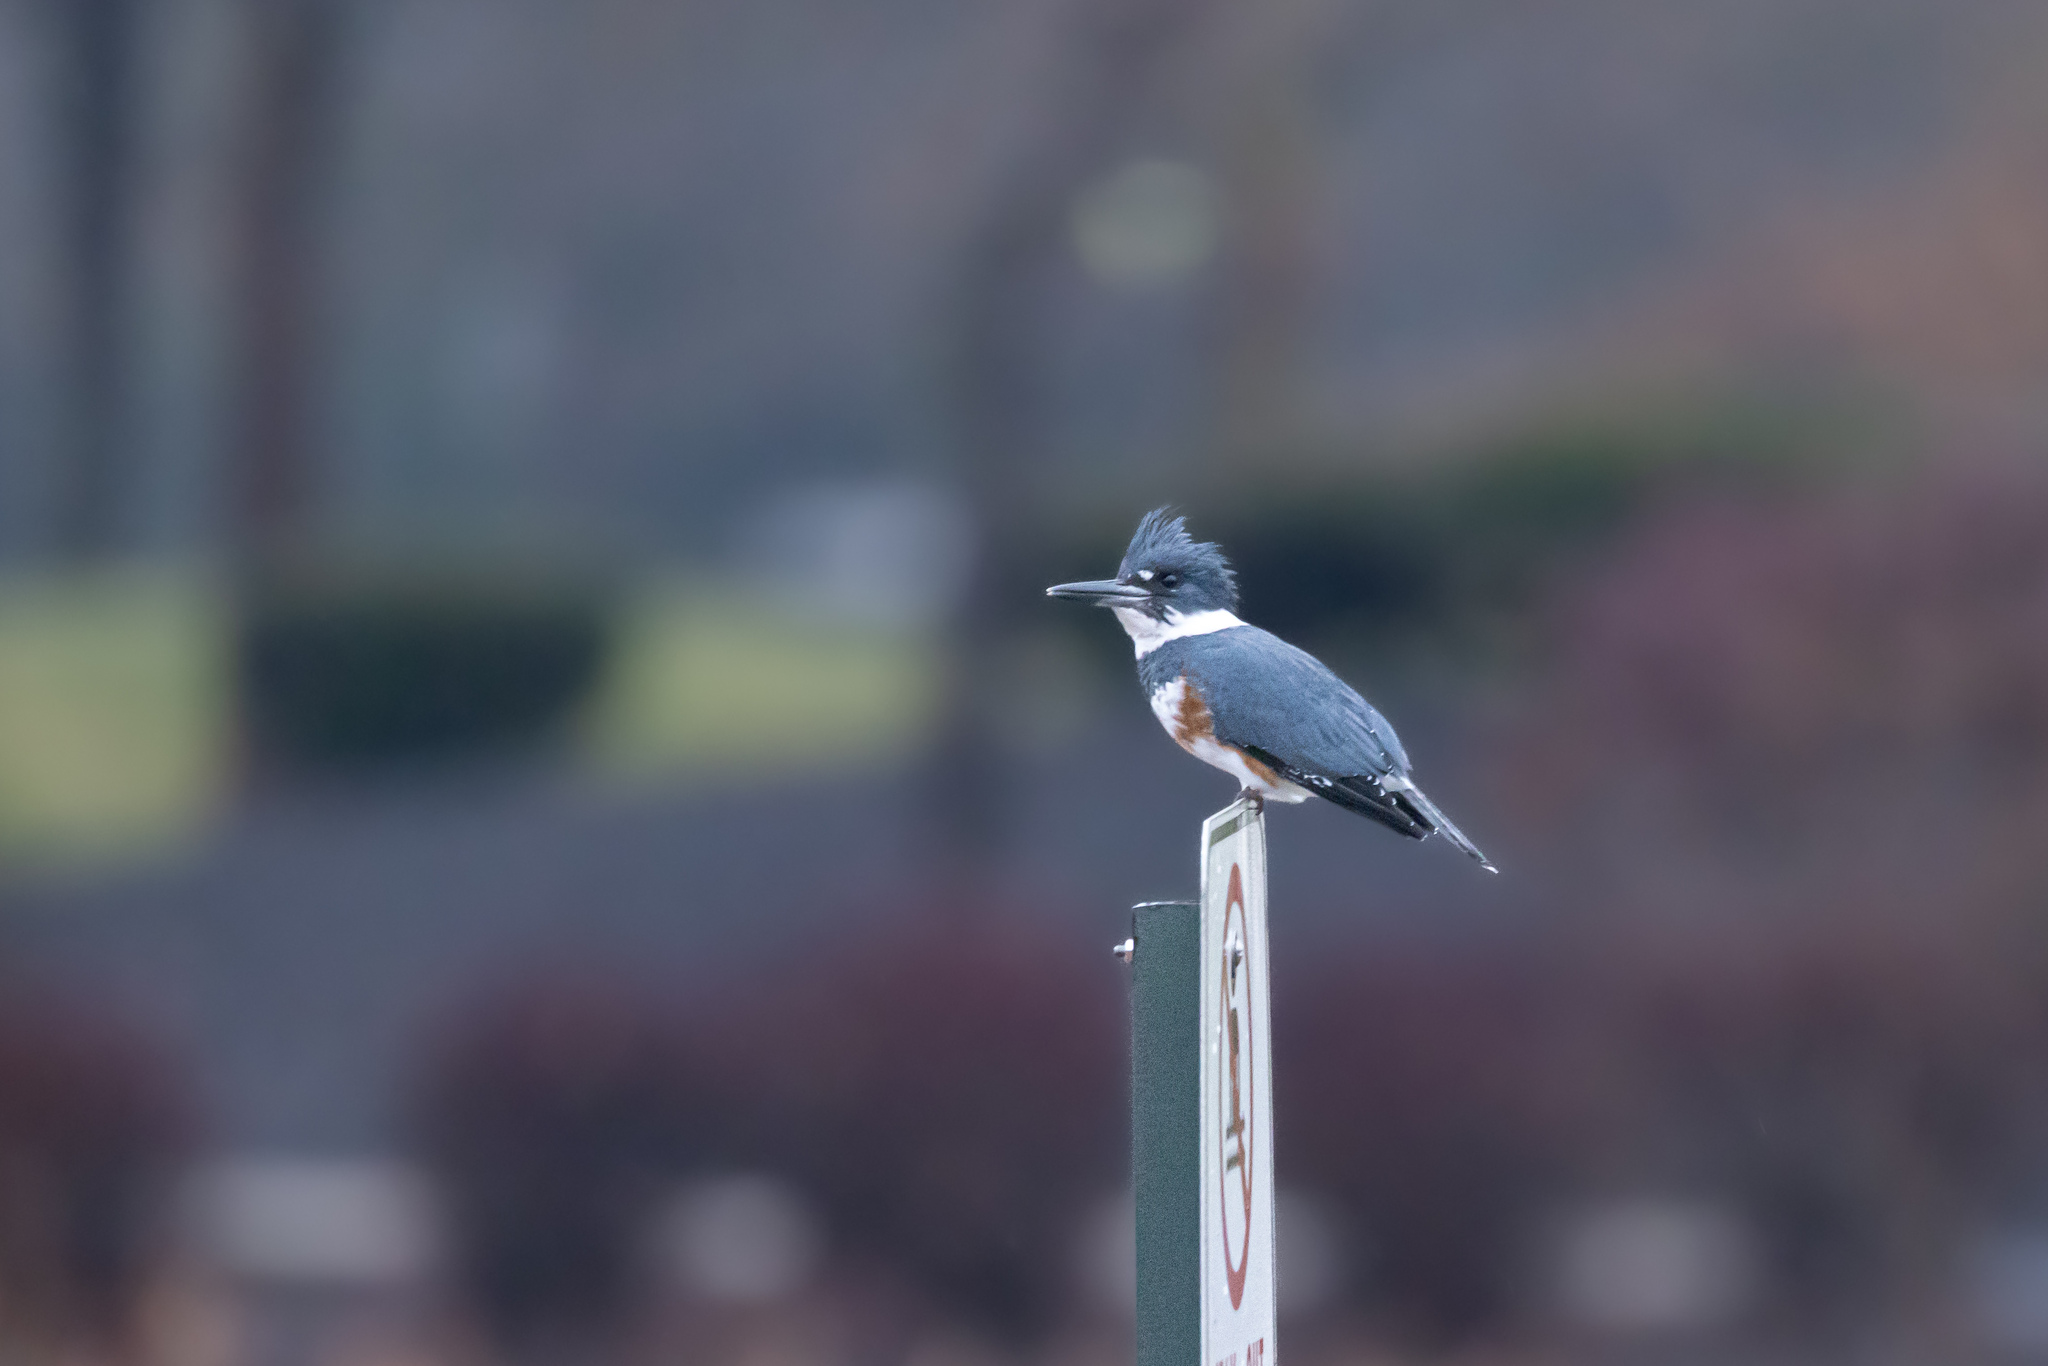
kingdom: Animalia
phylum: Chordata
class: Aves
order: Coraciiformes
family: Alcedinidae
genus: Megaceryle
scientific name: Megaceryle alcyon
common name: Belted kingfisher
